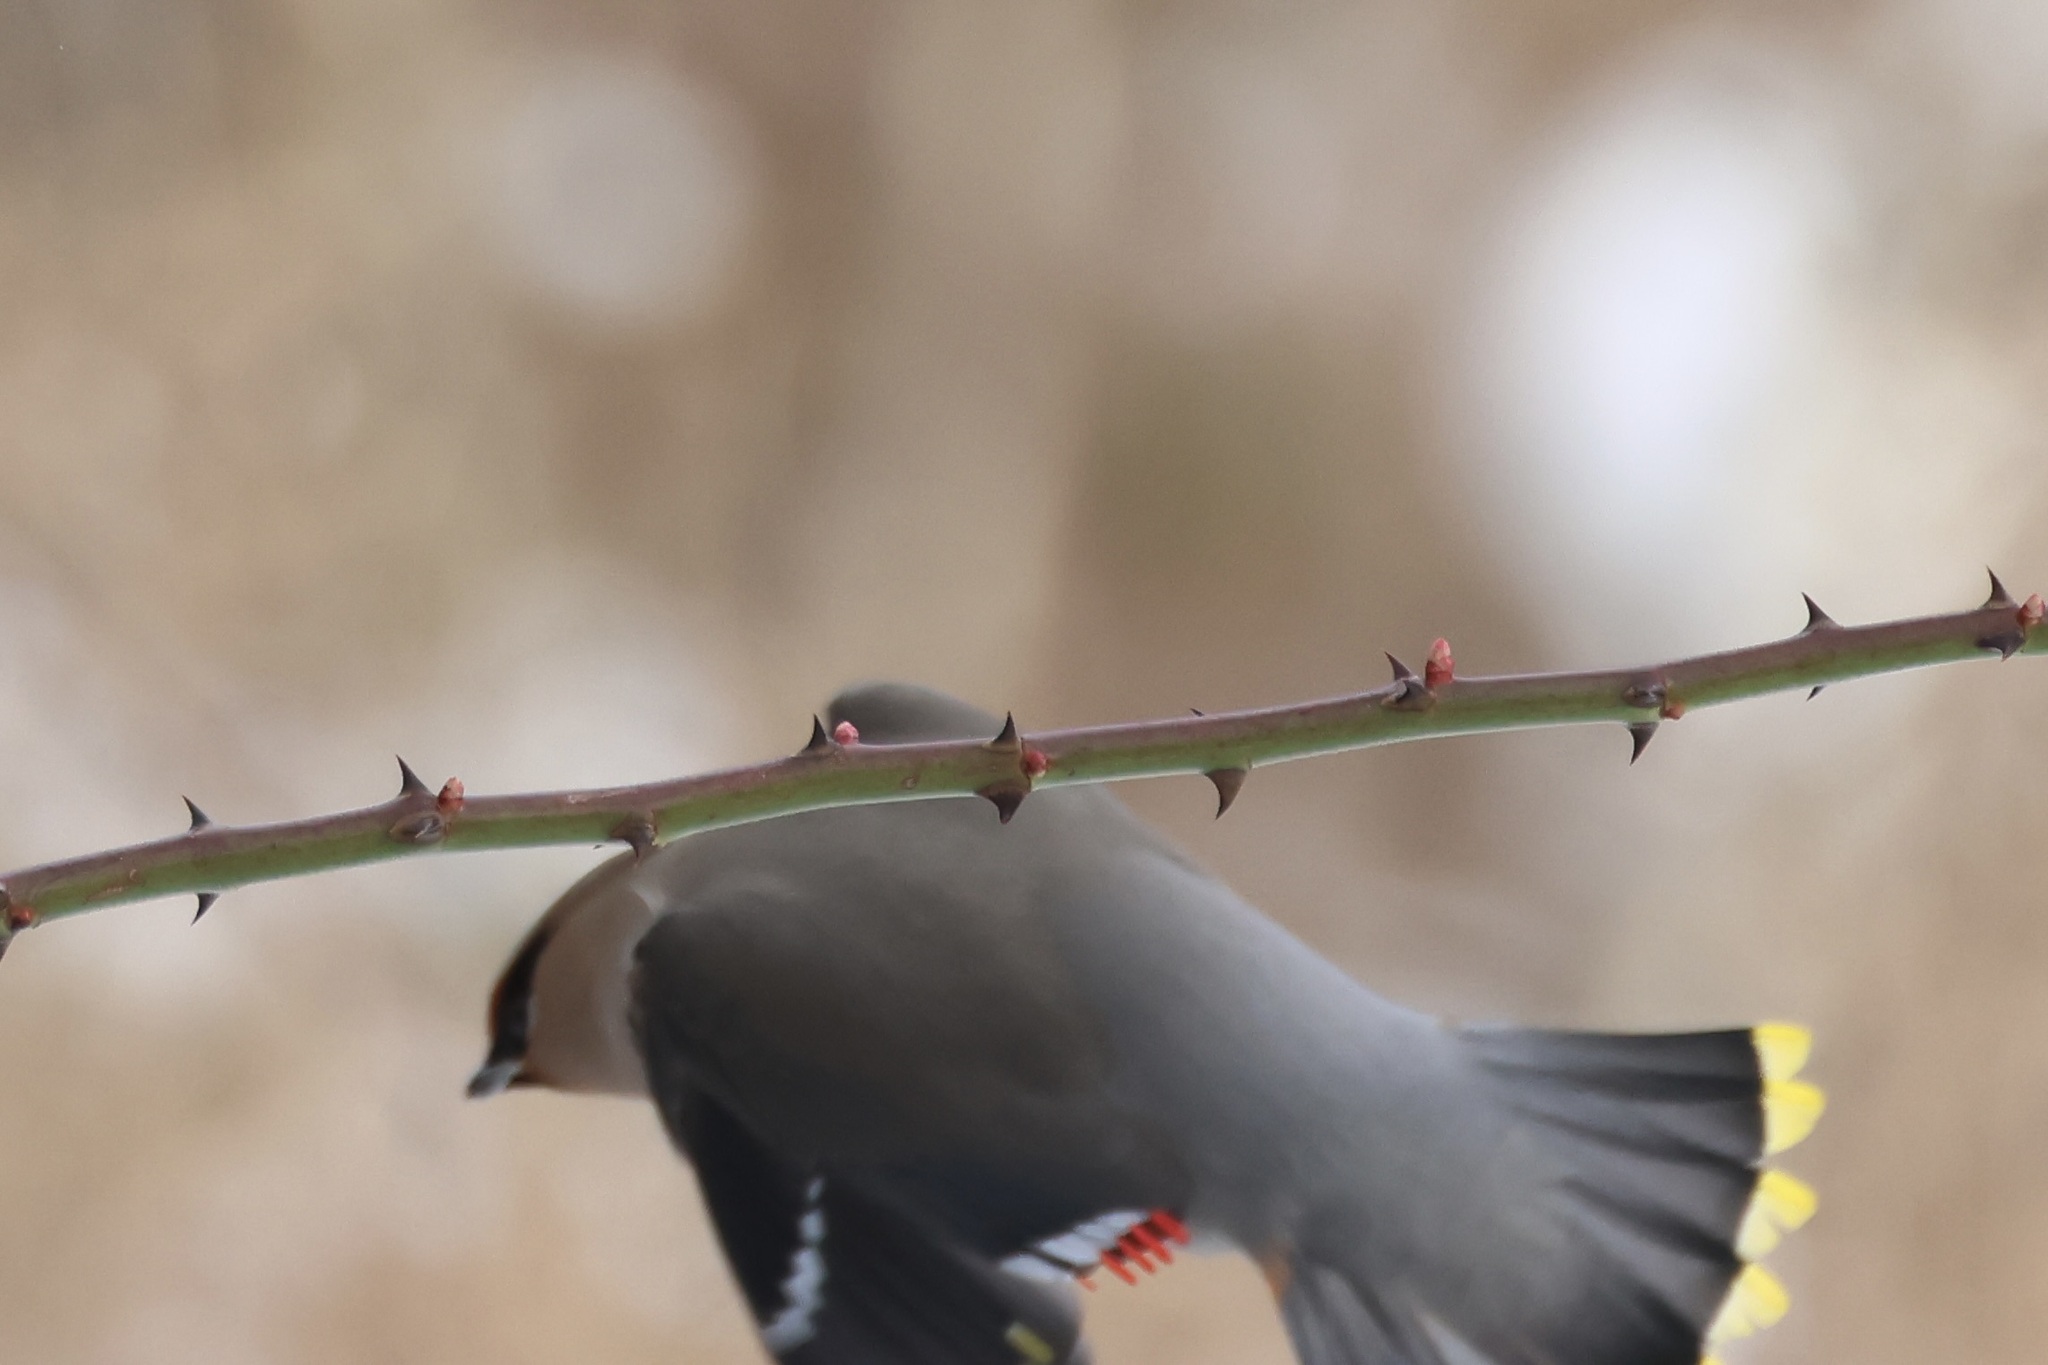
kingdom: Animalia
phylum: Chordata
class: Aves
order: Passeriformes
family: Bombycillidae
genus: Bombycilla
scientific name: Bombycilla garrulus
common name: Bohemian waxwing
